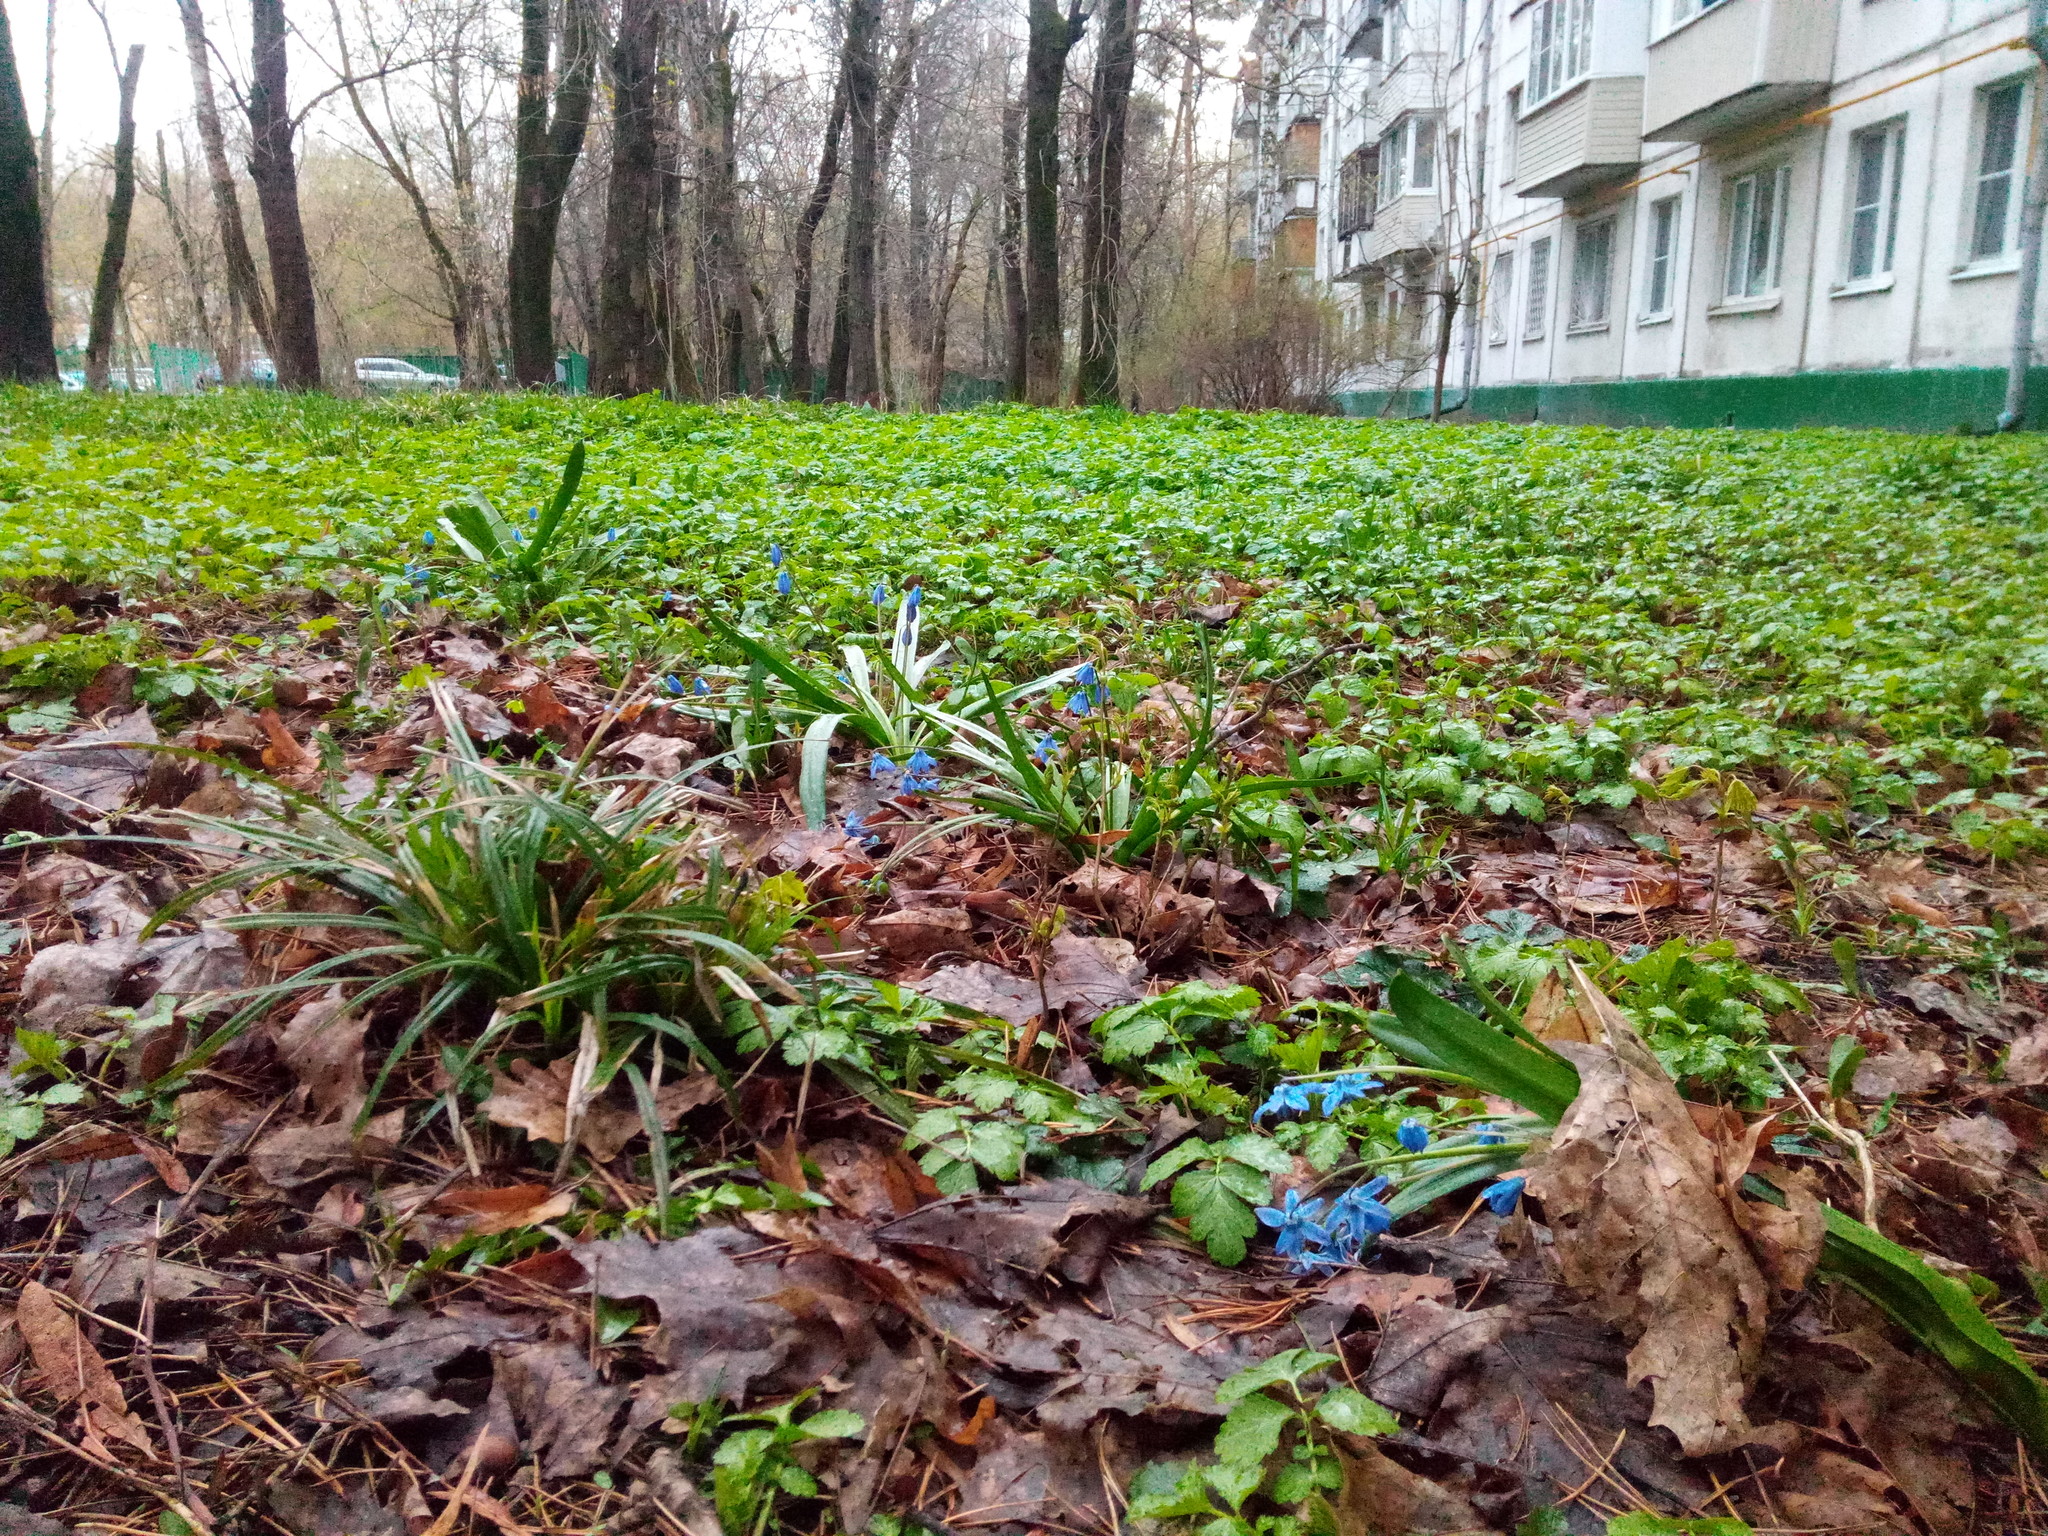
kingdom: Plantae
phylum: Tracheophyta
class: Liliopsida
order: Asparagales
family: Asparagaceae
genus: Scilla
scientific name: Scilla siberica
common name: Siberian squill
